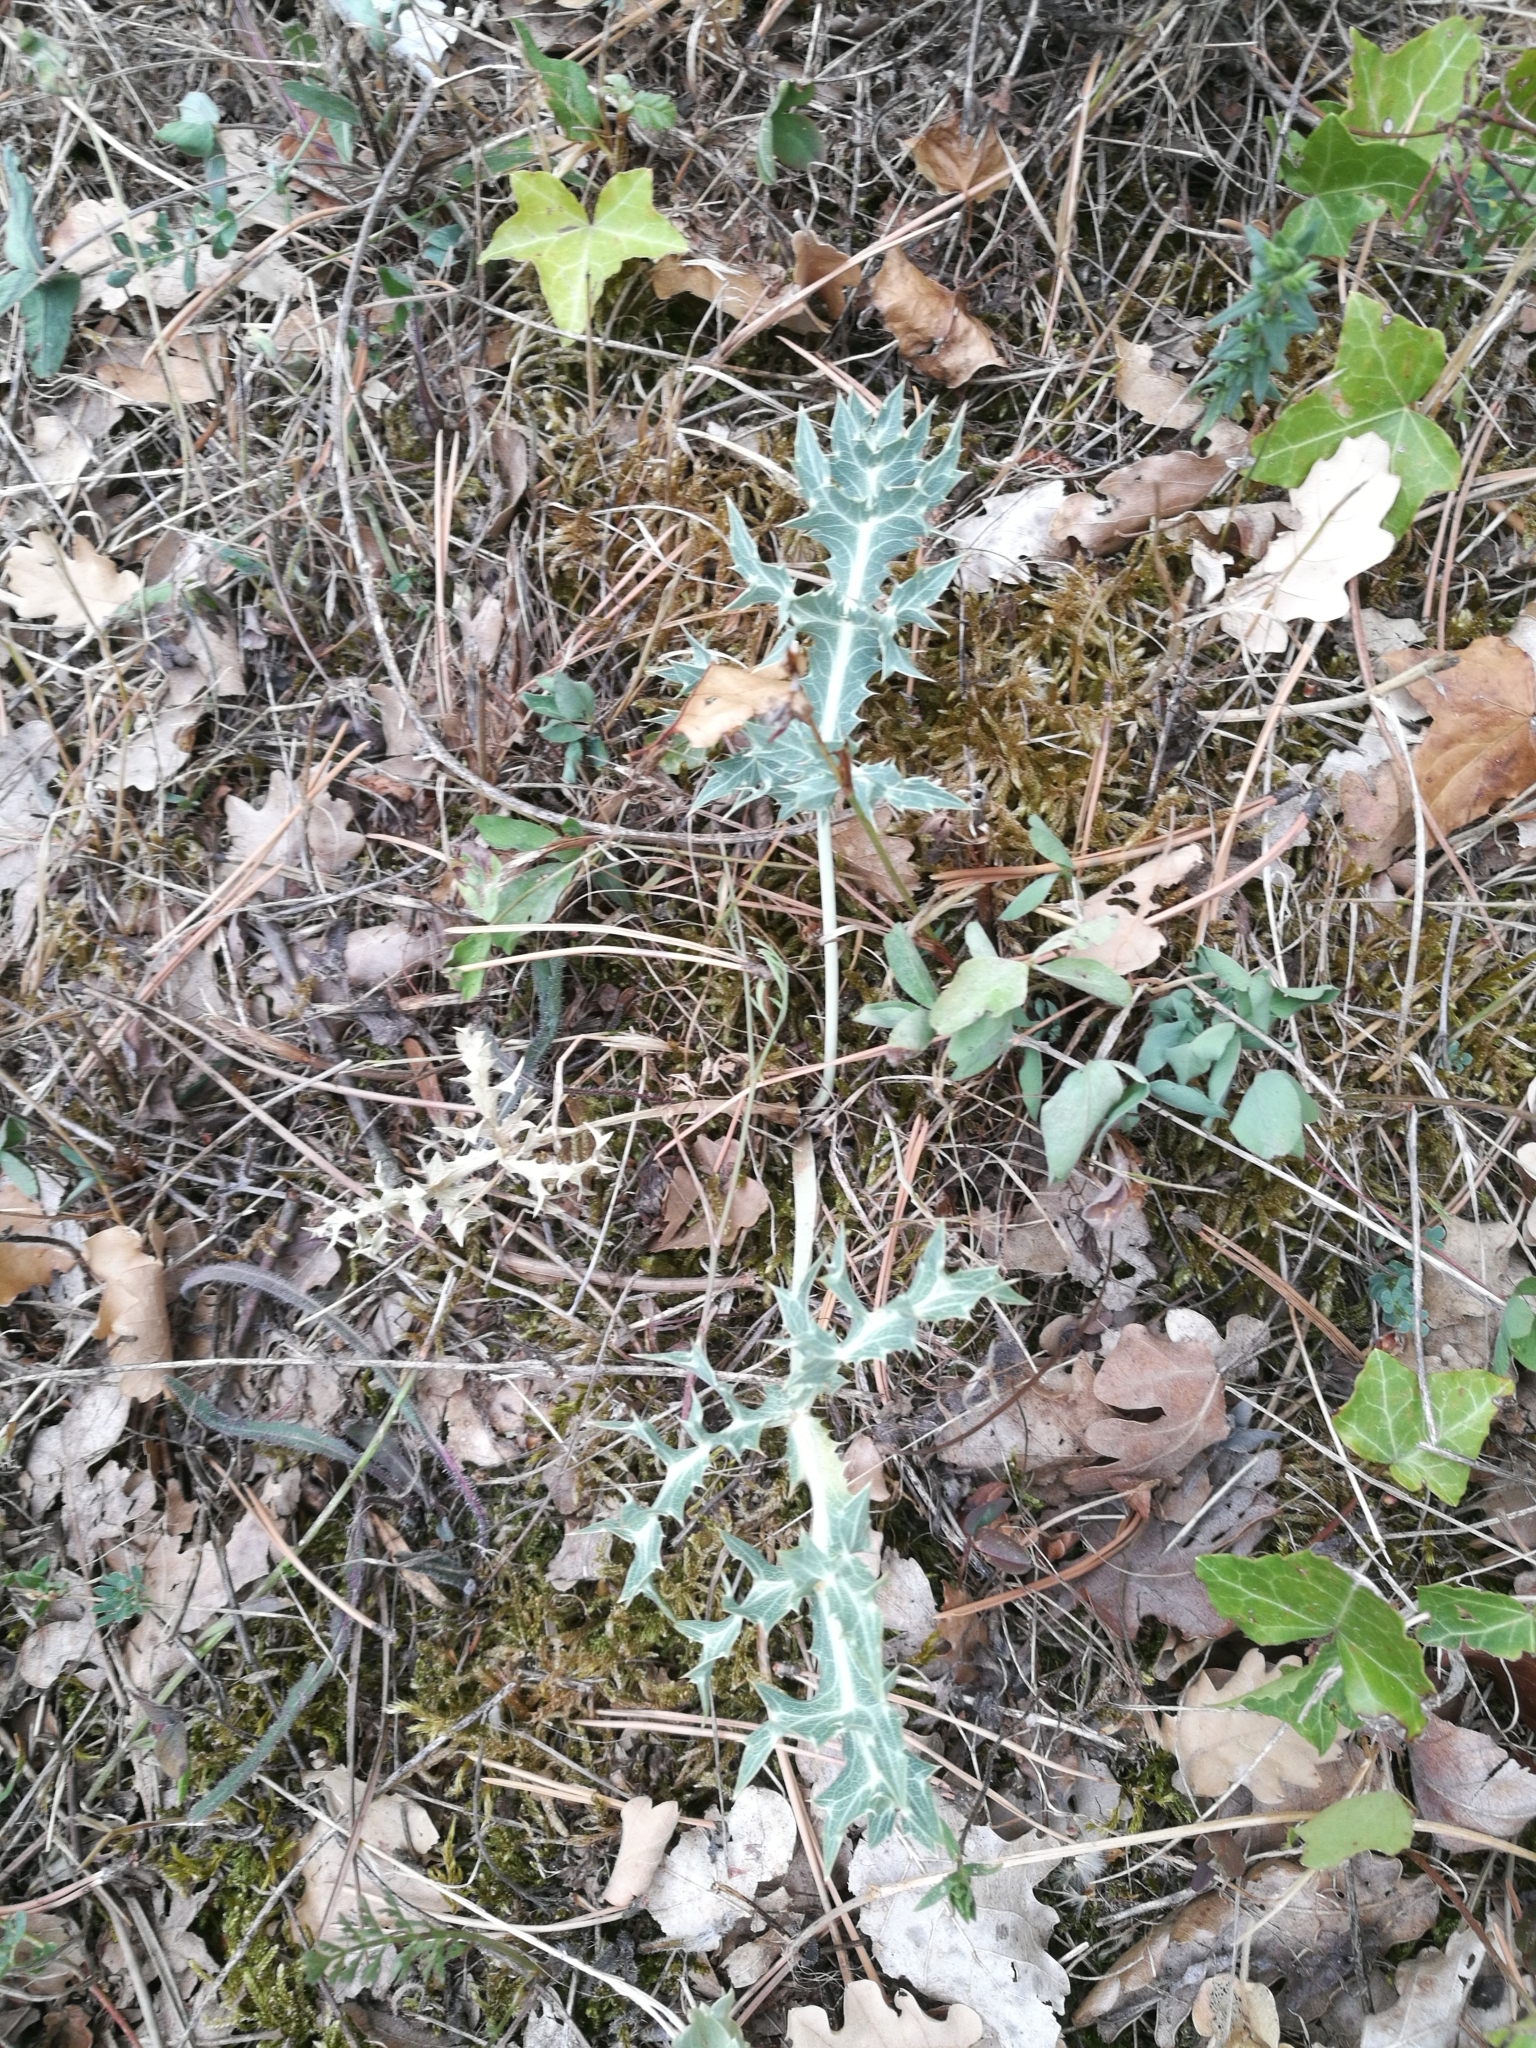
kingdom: Plantae
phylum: Tracheophyta
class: Magnoliopsida
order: Apiales
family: Apiaceae
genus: Eryngium
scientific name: Eryngium campestre
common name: Field eryngo
